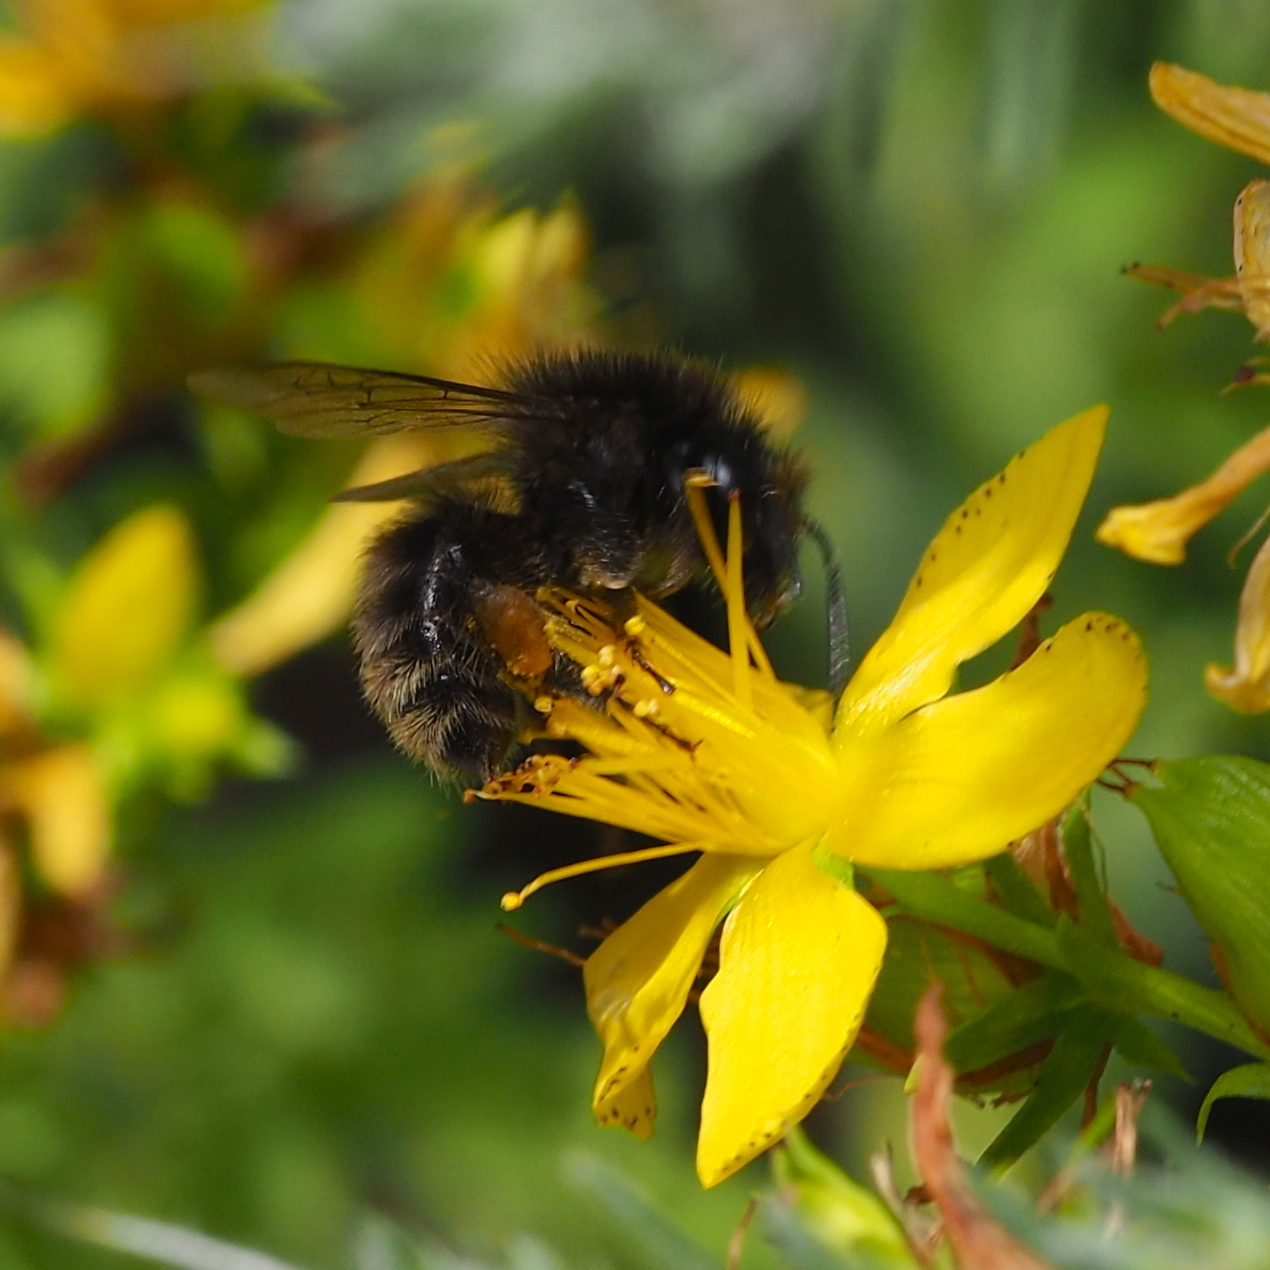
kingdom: Animalia
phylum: Arthropoda
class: Insecta
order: Hymenoptera
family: Apidae
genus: Bombus
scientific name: Bombus humilis
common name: Brown-banded carder-bee
